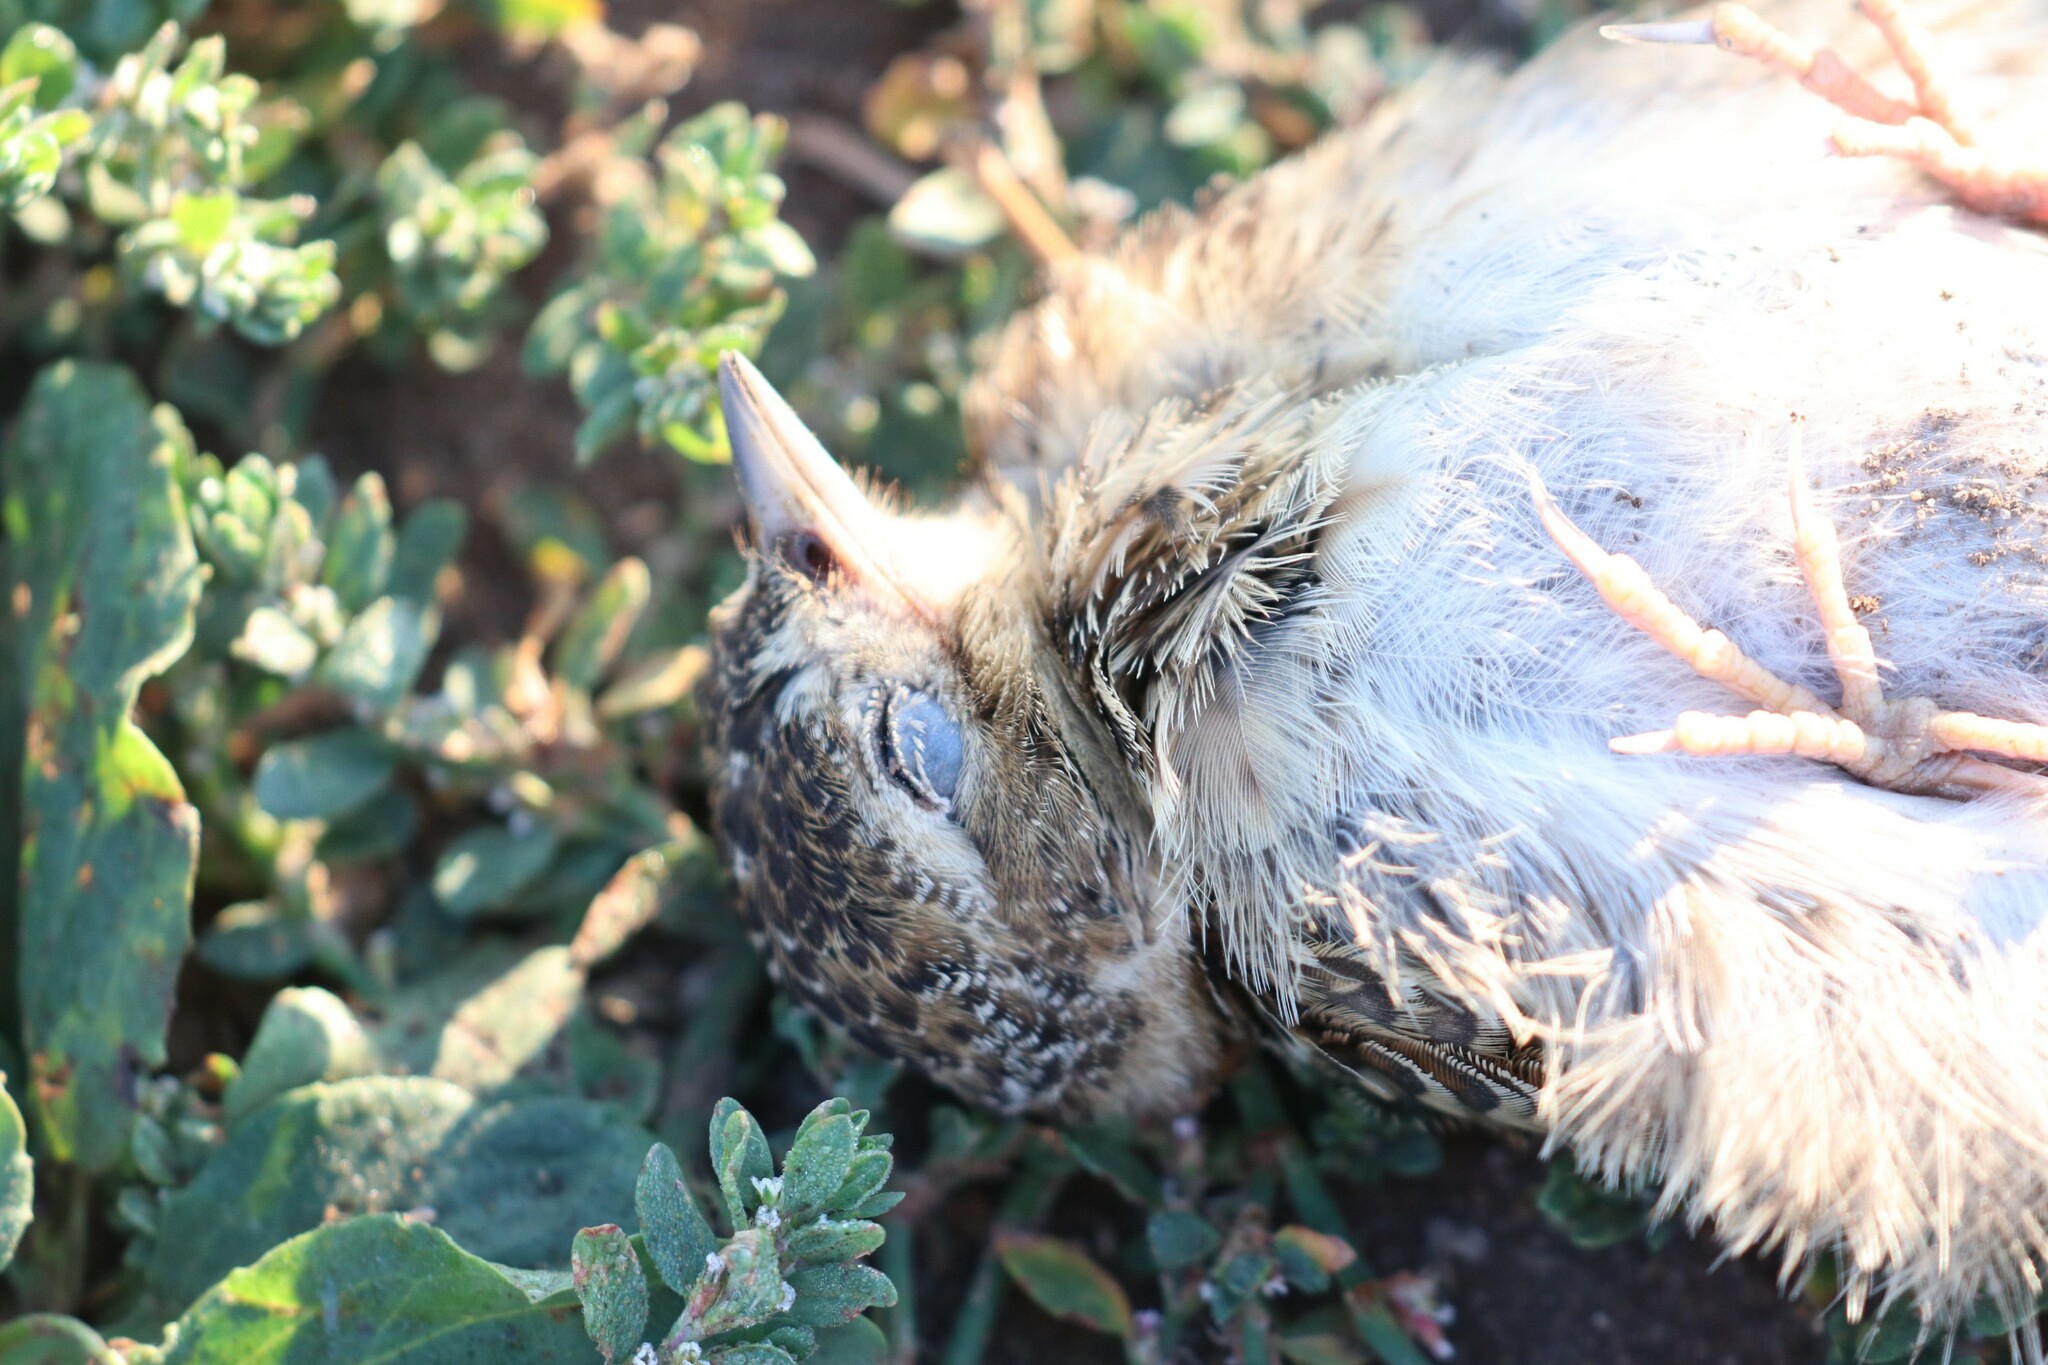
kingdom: Animalia
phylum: Chordata
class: Aves
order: Passeriformes
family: Alaudidae
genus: Alauda
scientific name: Alauda arvensis
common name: Eurasian skylark
